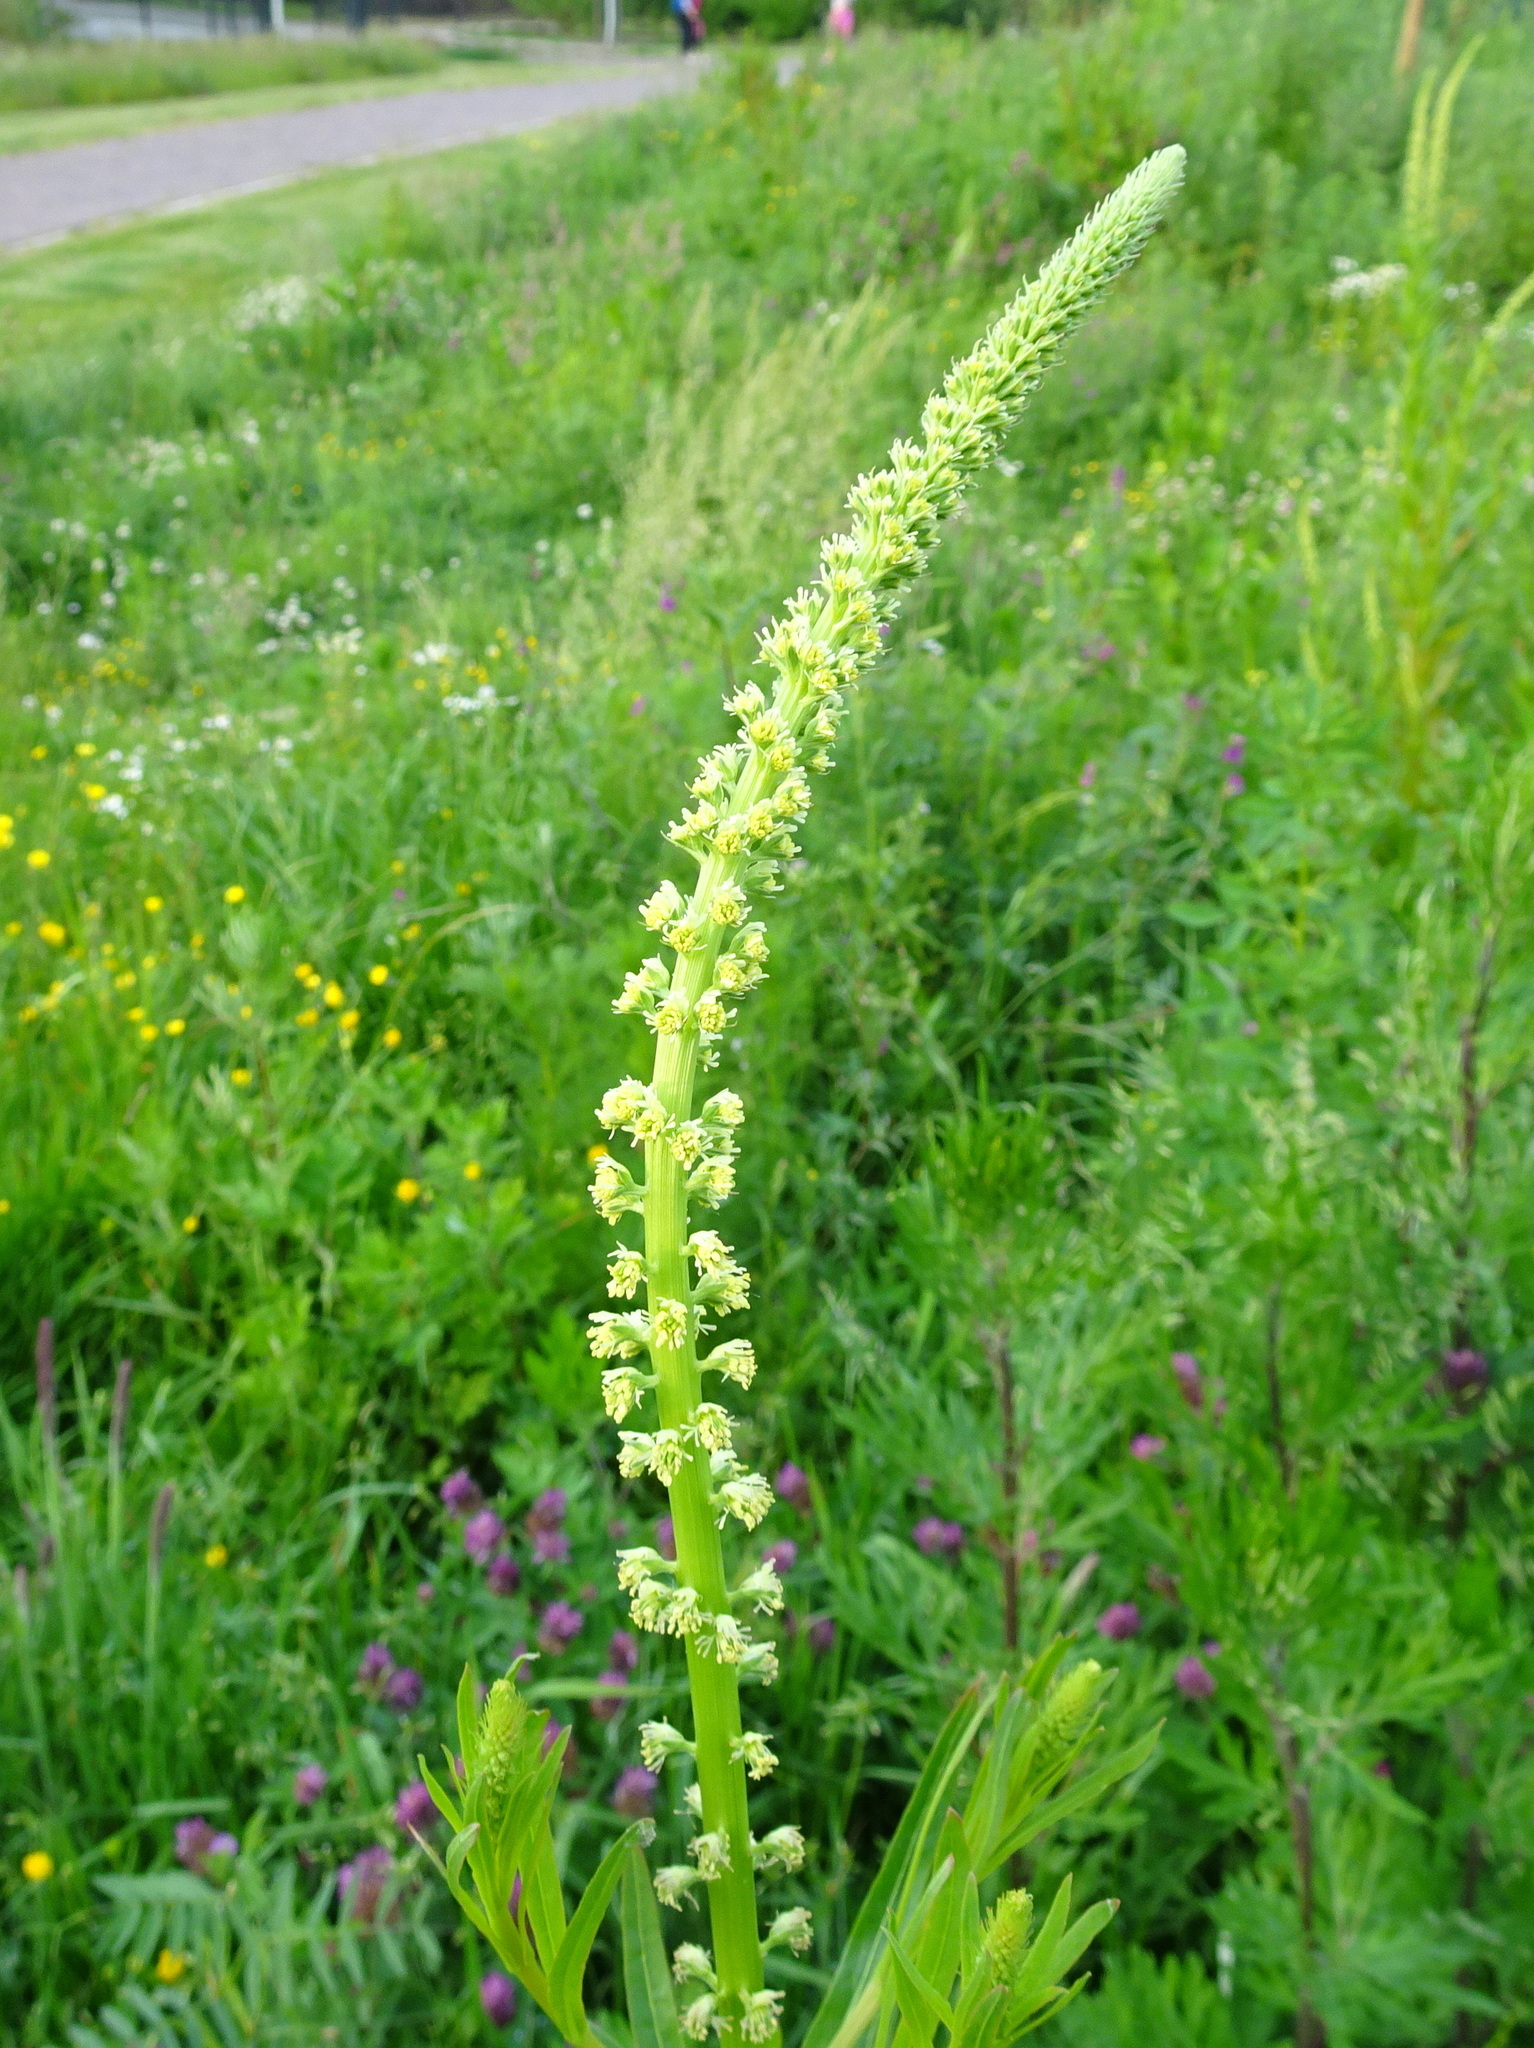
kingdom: Plantae
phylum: Tracheophyta
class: Magnoliopsida
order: Brassicales
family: Resedaceae
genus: Reseda
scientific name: Reseda luteola
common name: Weld
